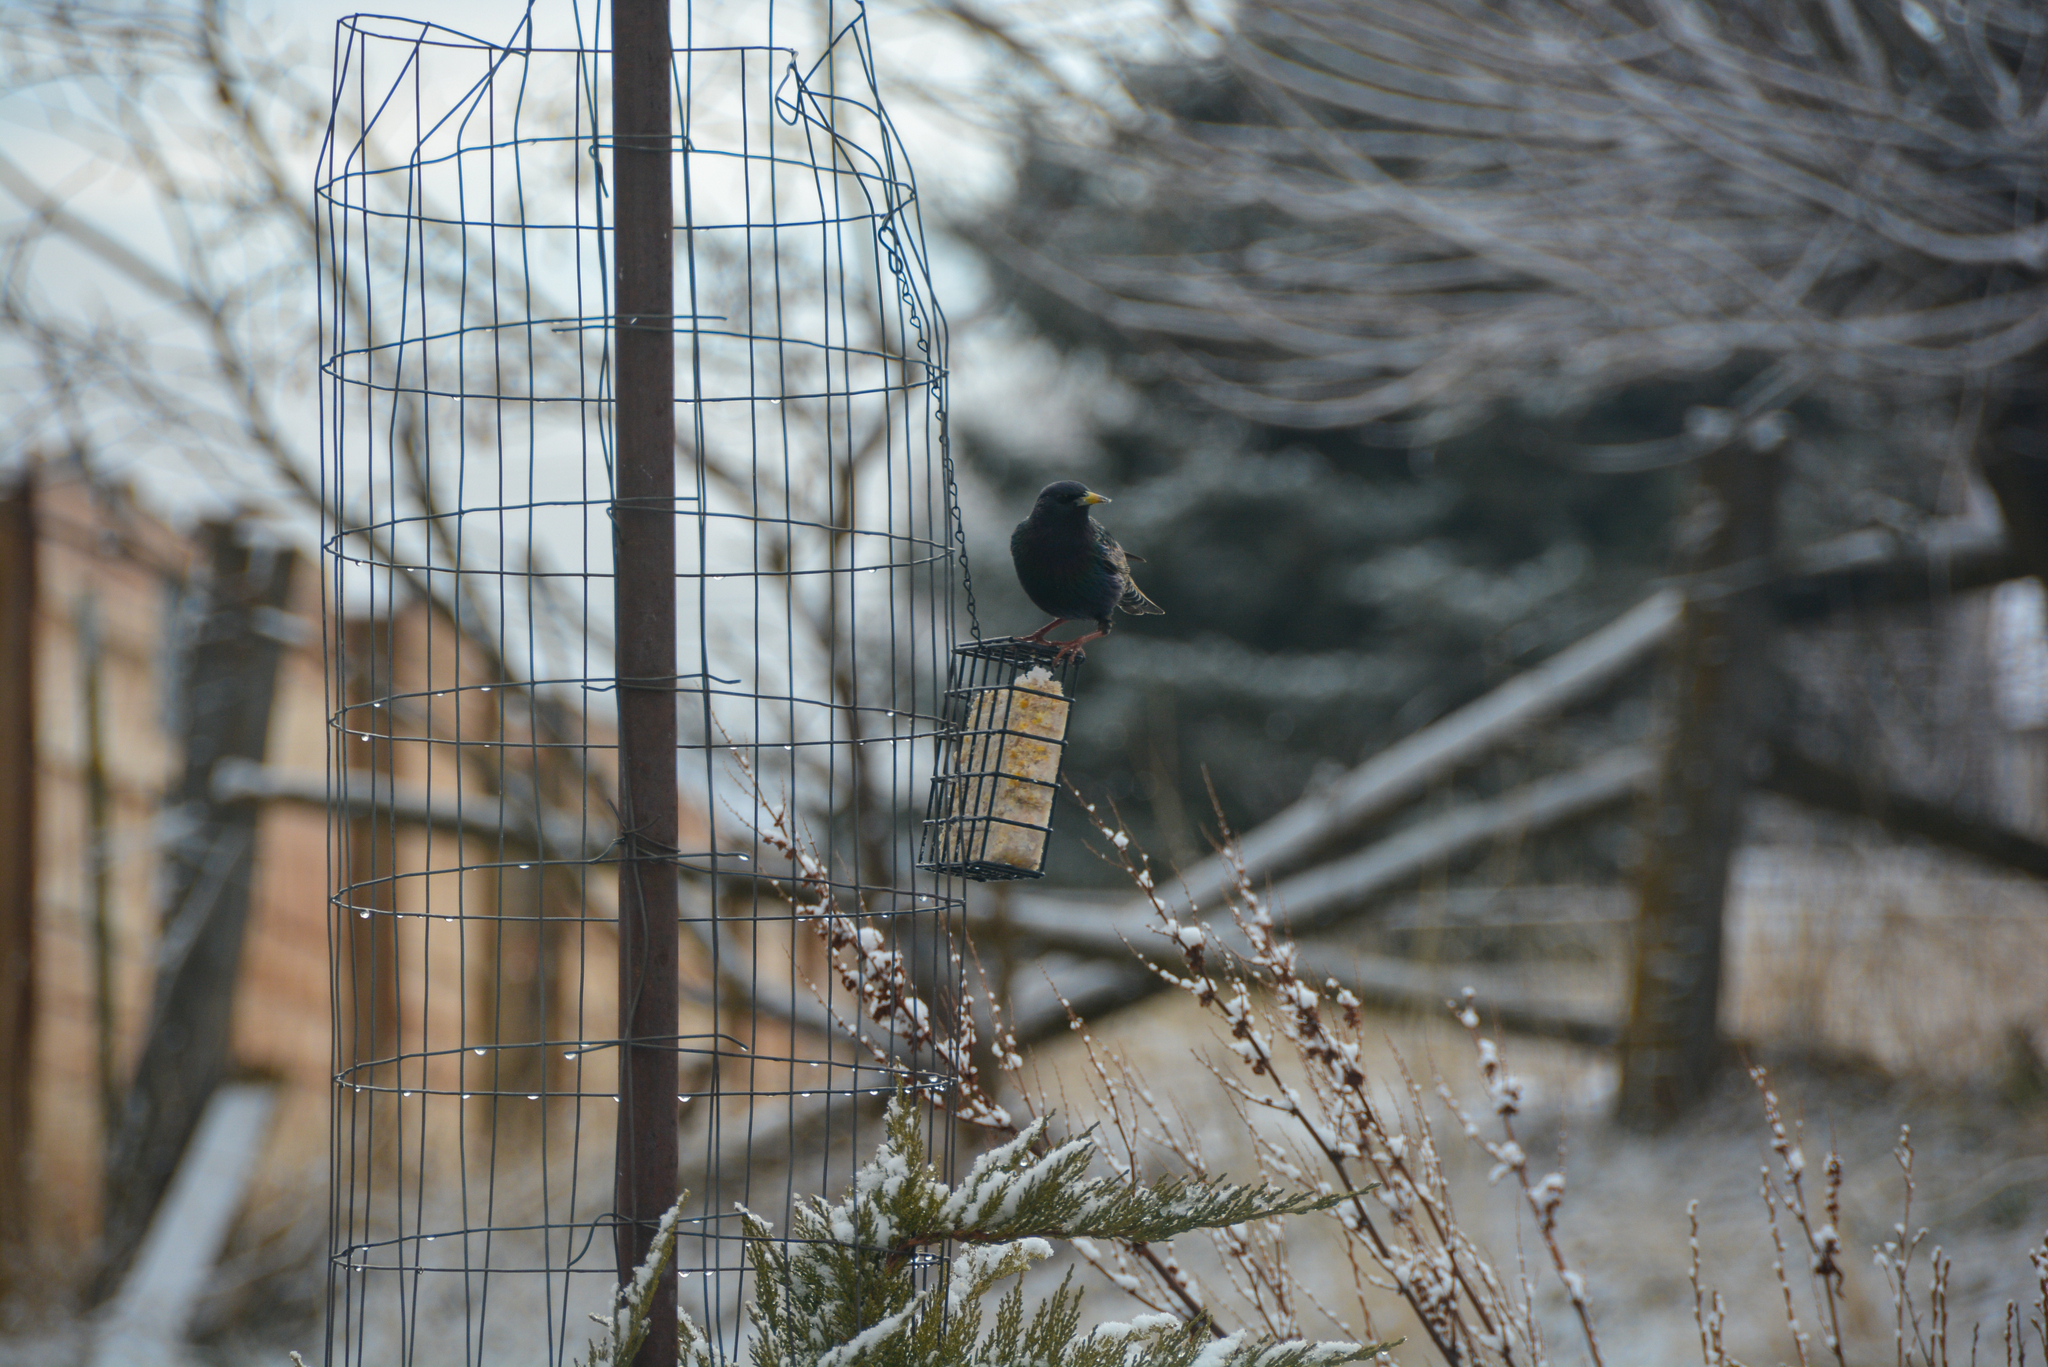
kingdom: Animalia
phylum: Chordata
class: Aves
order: Passeriformes
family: Sturnidae
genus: Sturnus
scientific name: Sturnus vulgaris
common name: Common starling
